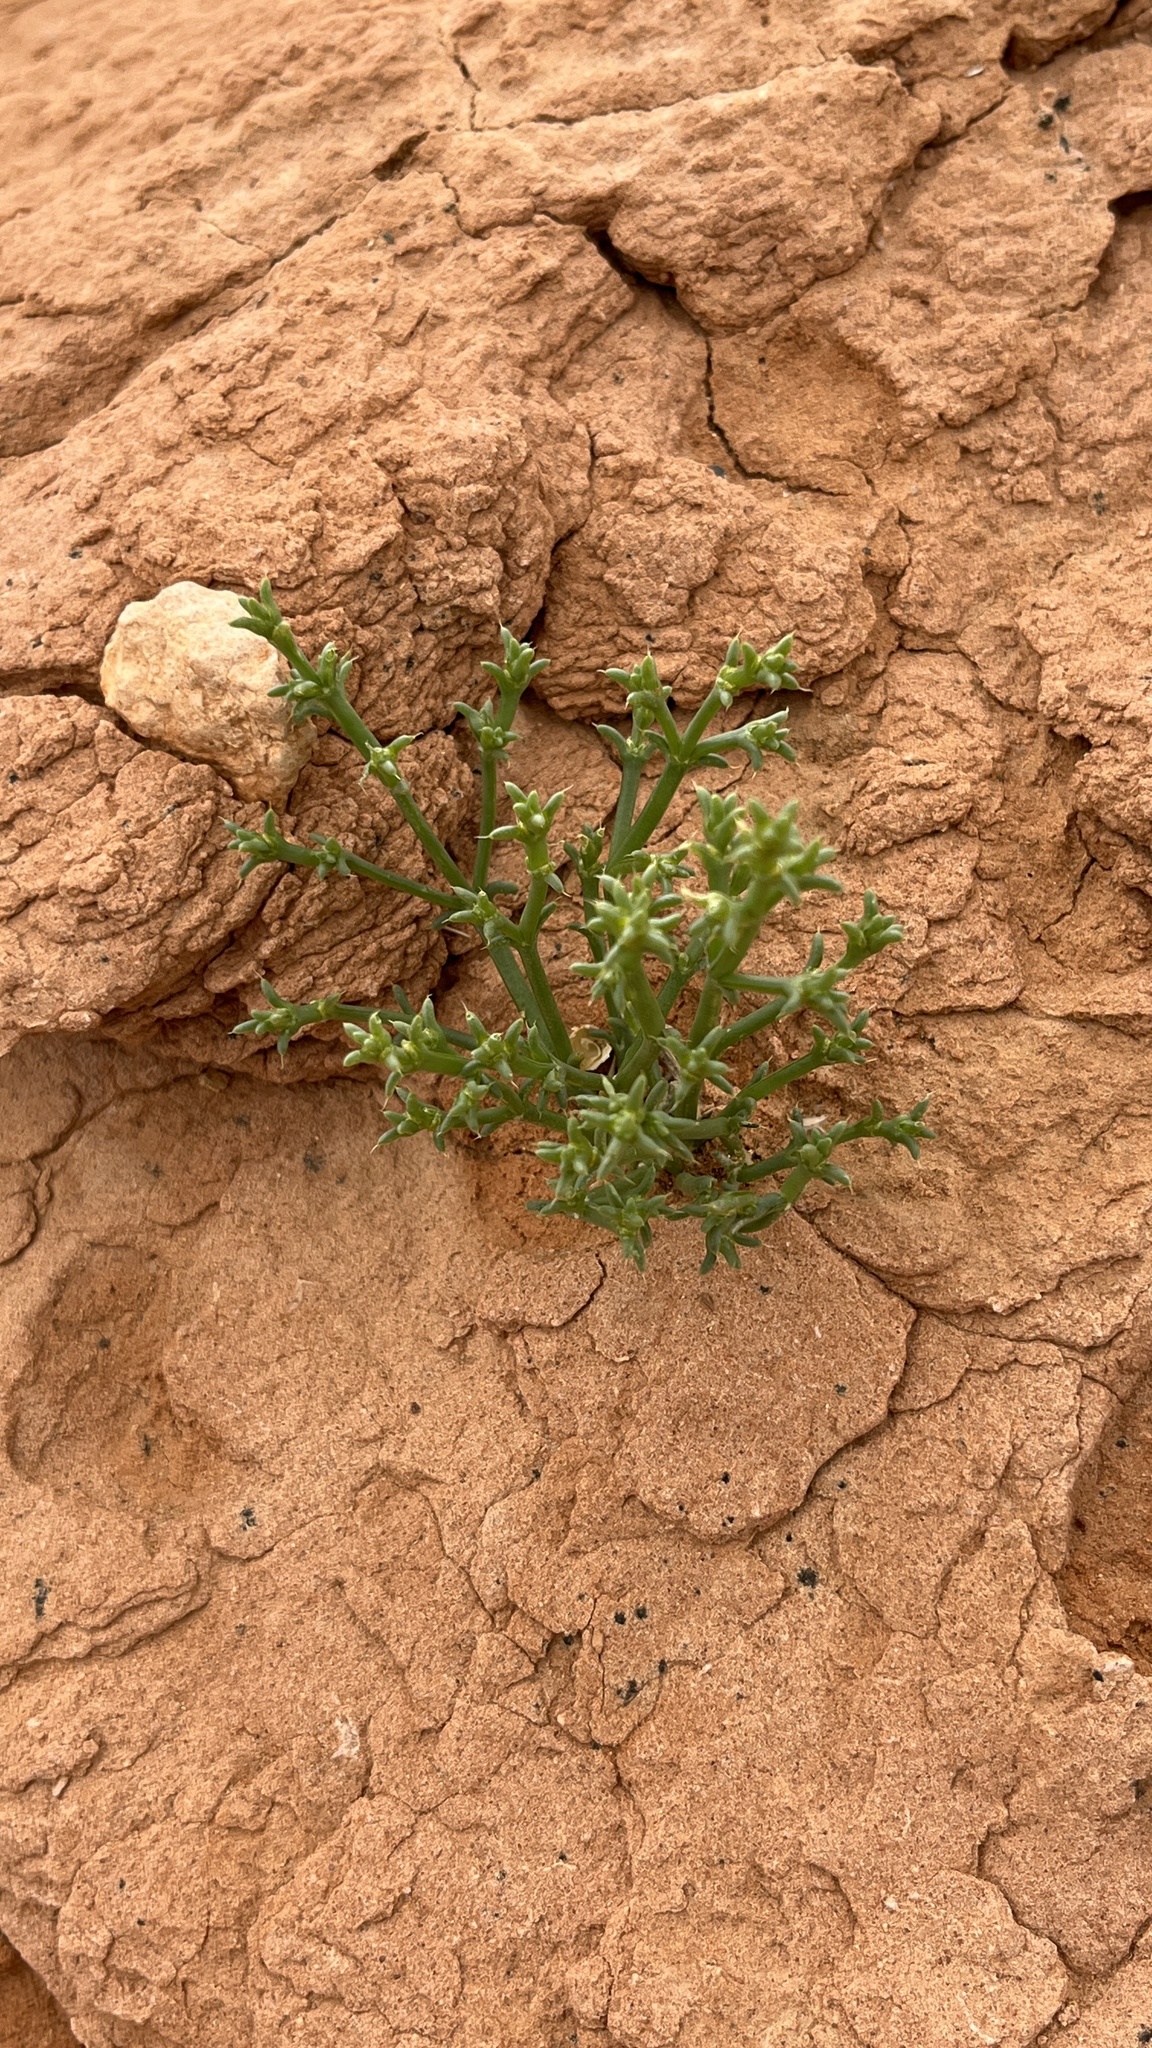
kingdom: Plantae
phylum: Tracheophyta
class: Magnoliopsida
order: Caryophyllales
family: Amaranthaceae
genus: Anabasis
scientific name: Anabasis brevifolia
